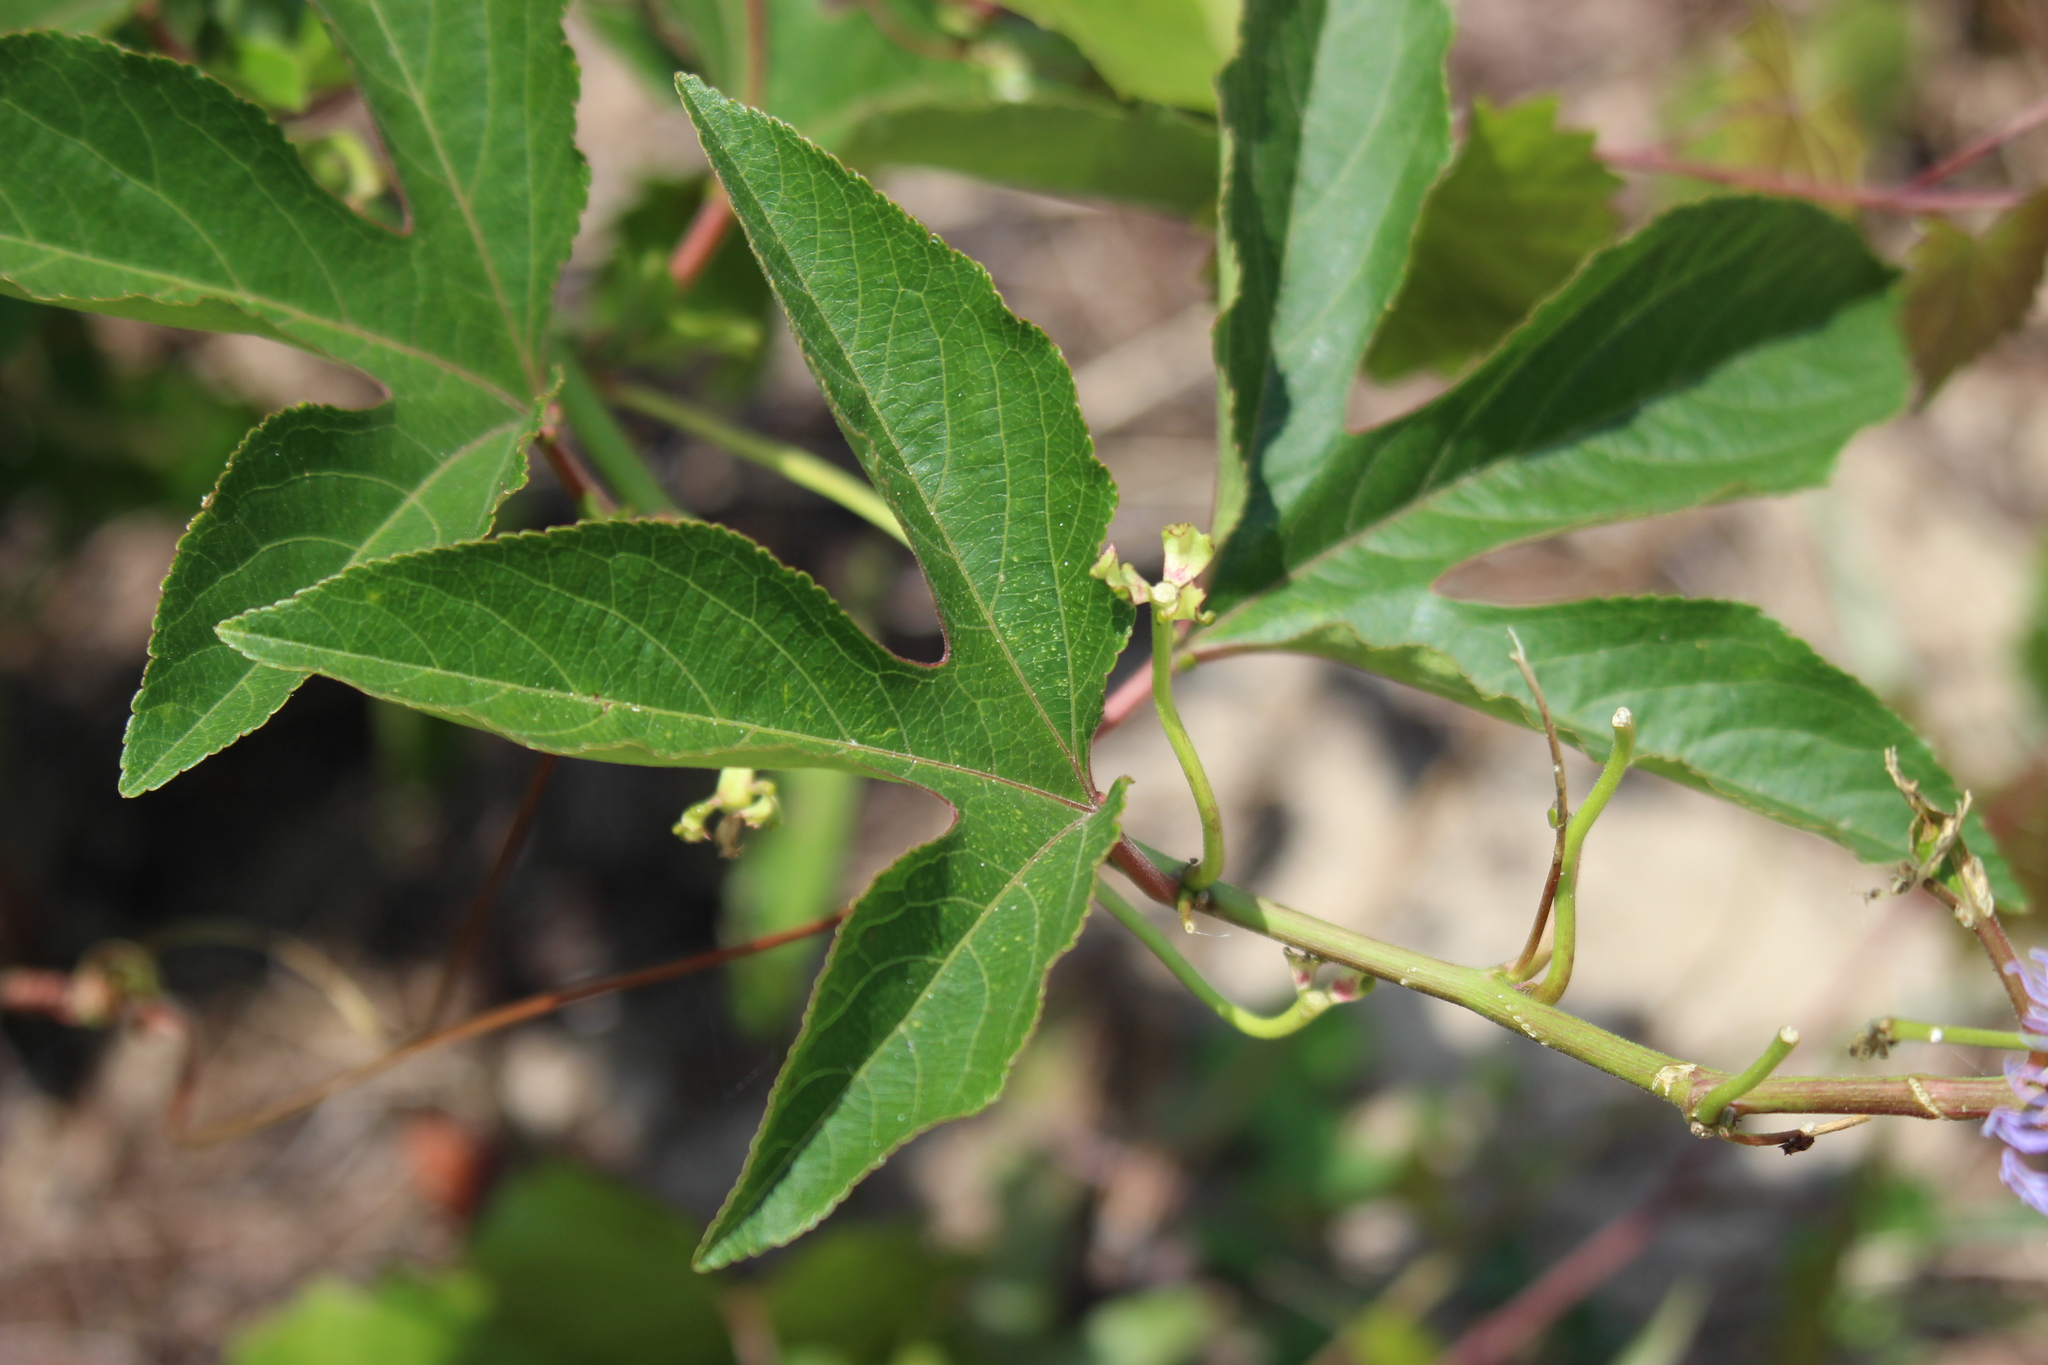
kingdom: Plantae
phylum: Tracheophyta
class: Magnoliopsida
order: Malpighiales
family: Passifloraceae
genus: Passiflora
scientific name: Passiflora incarnata
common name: Apricot-vine
